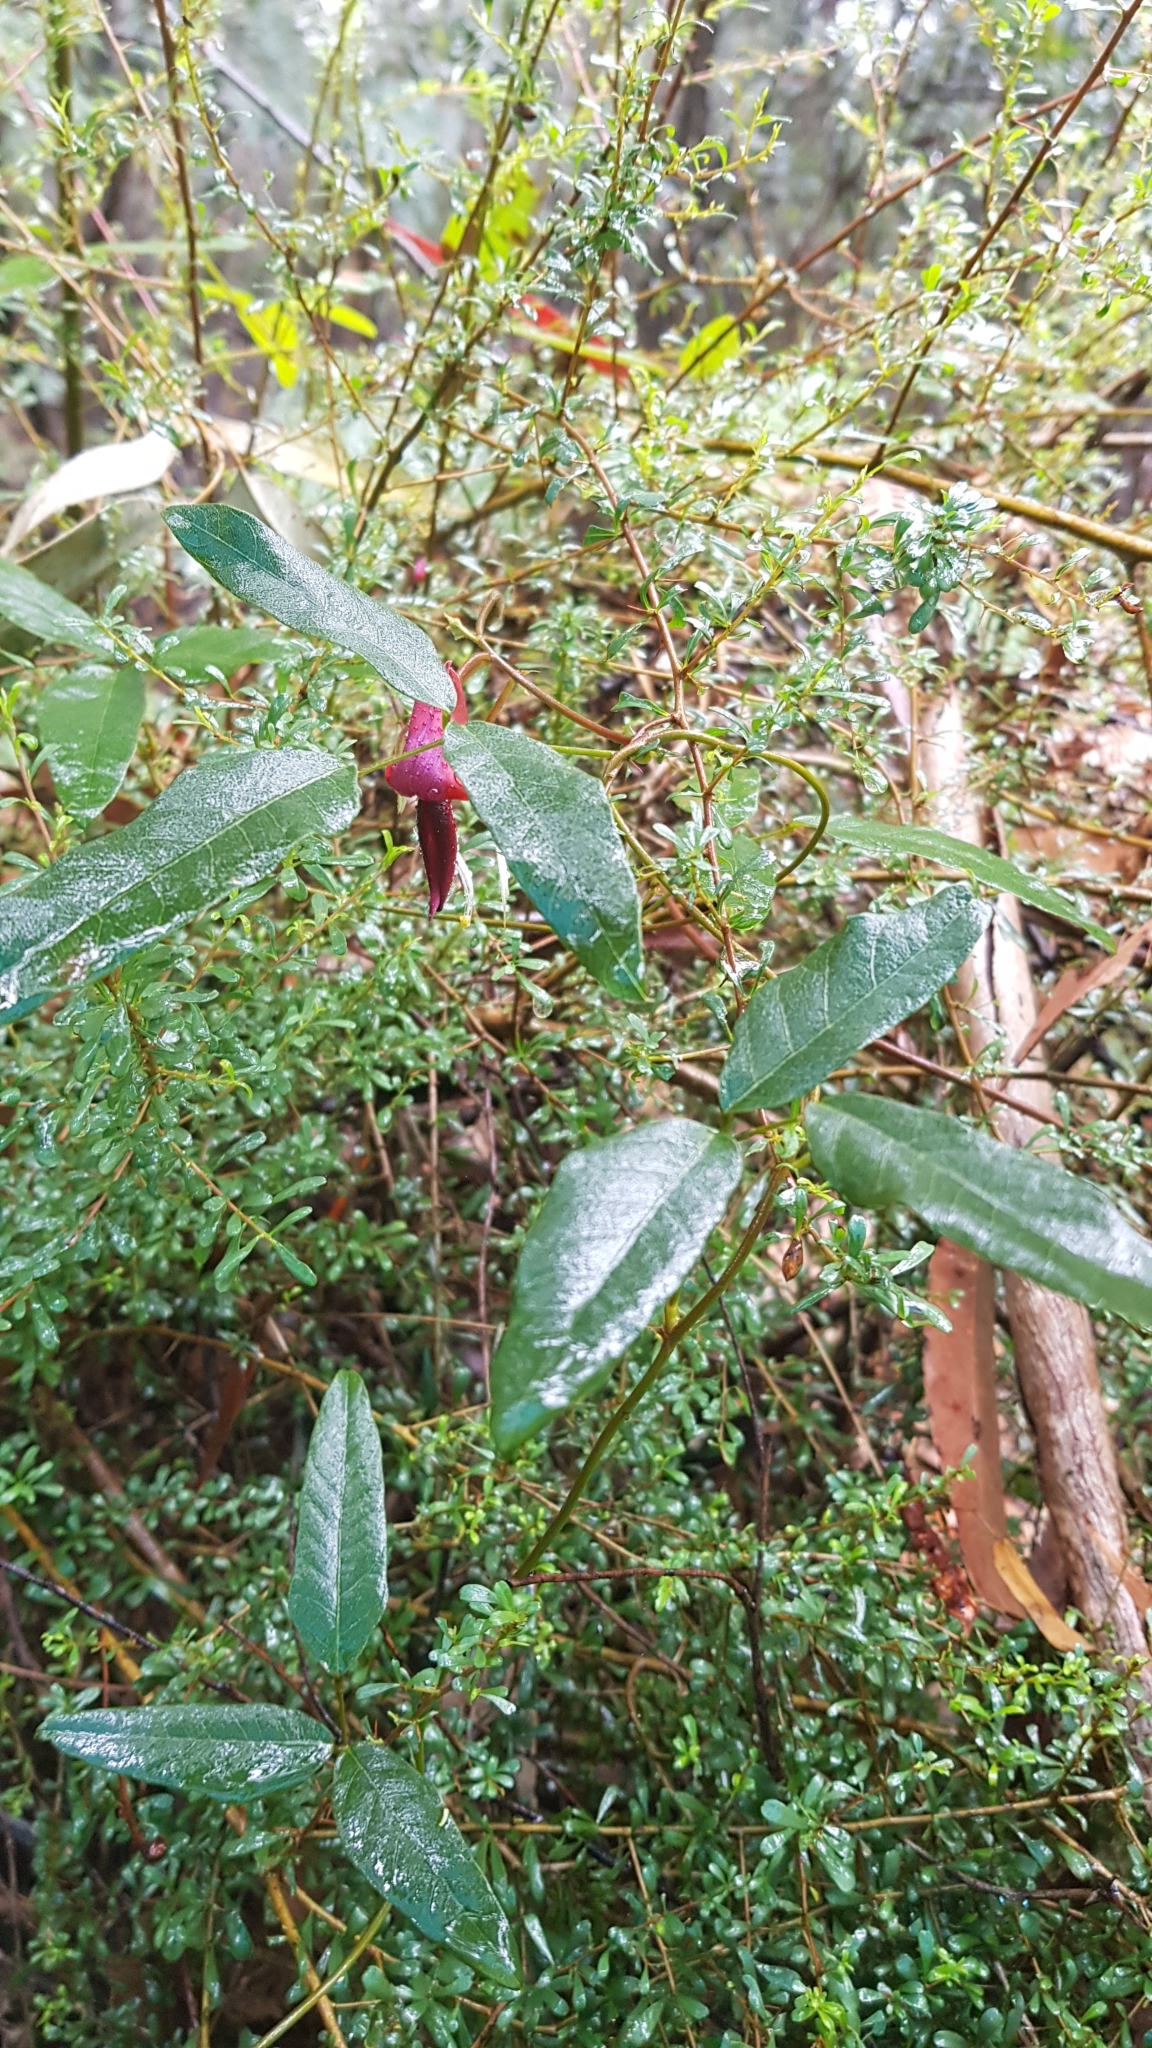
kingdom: Plantae
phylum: Tracheophyta
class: Magnoliopsida
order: Fabales
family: Fabaceae
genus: Kennedia
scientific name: Kennedia rubicunda
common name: Red kennedy-pea
